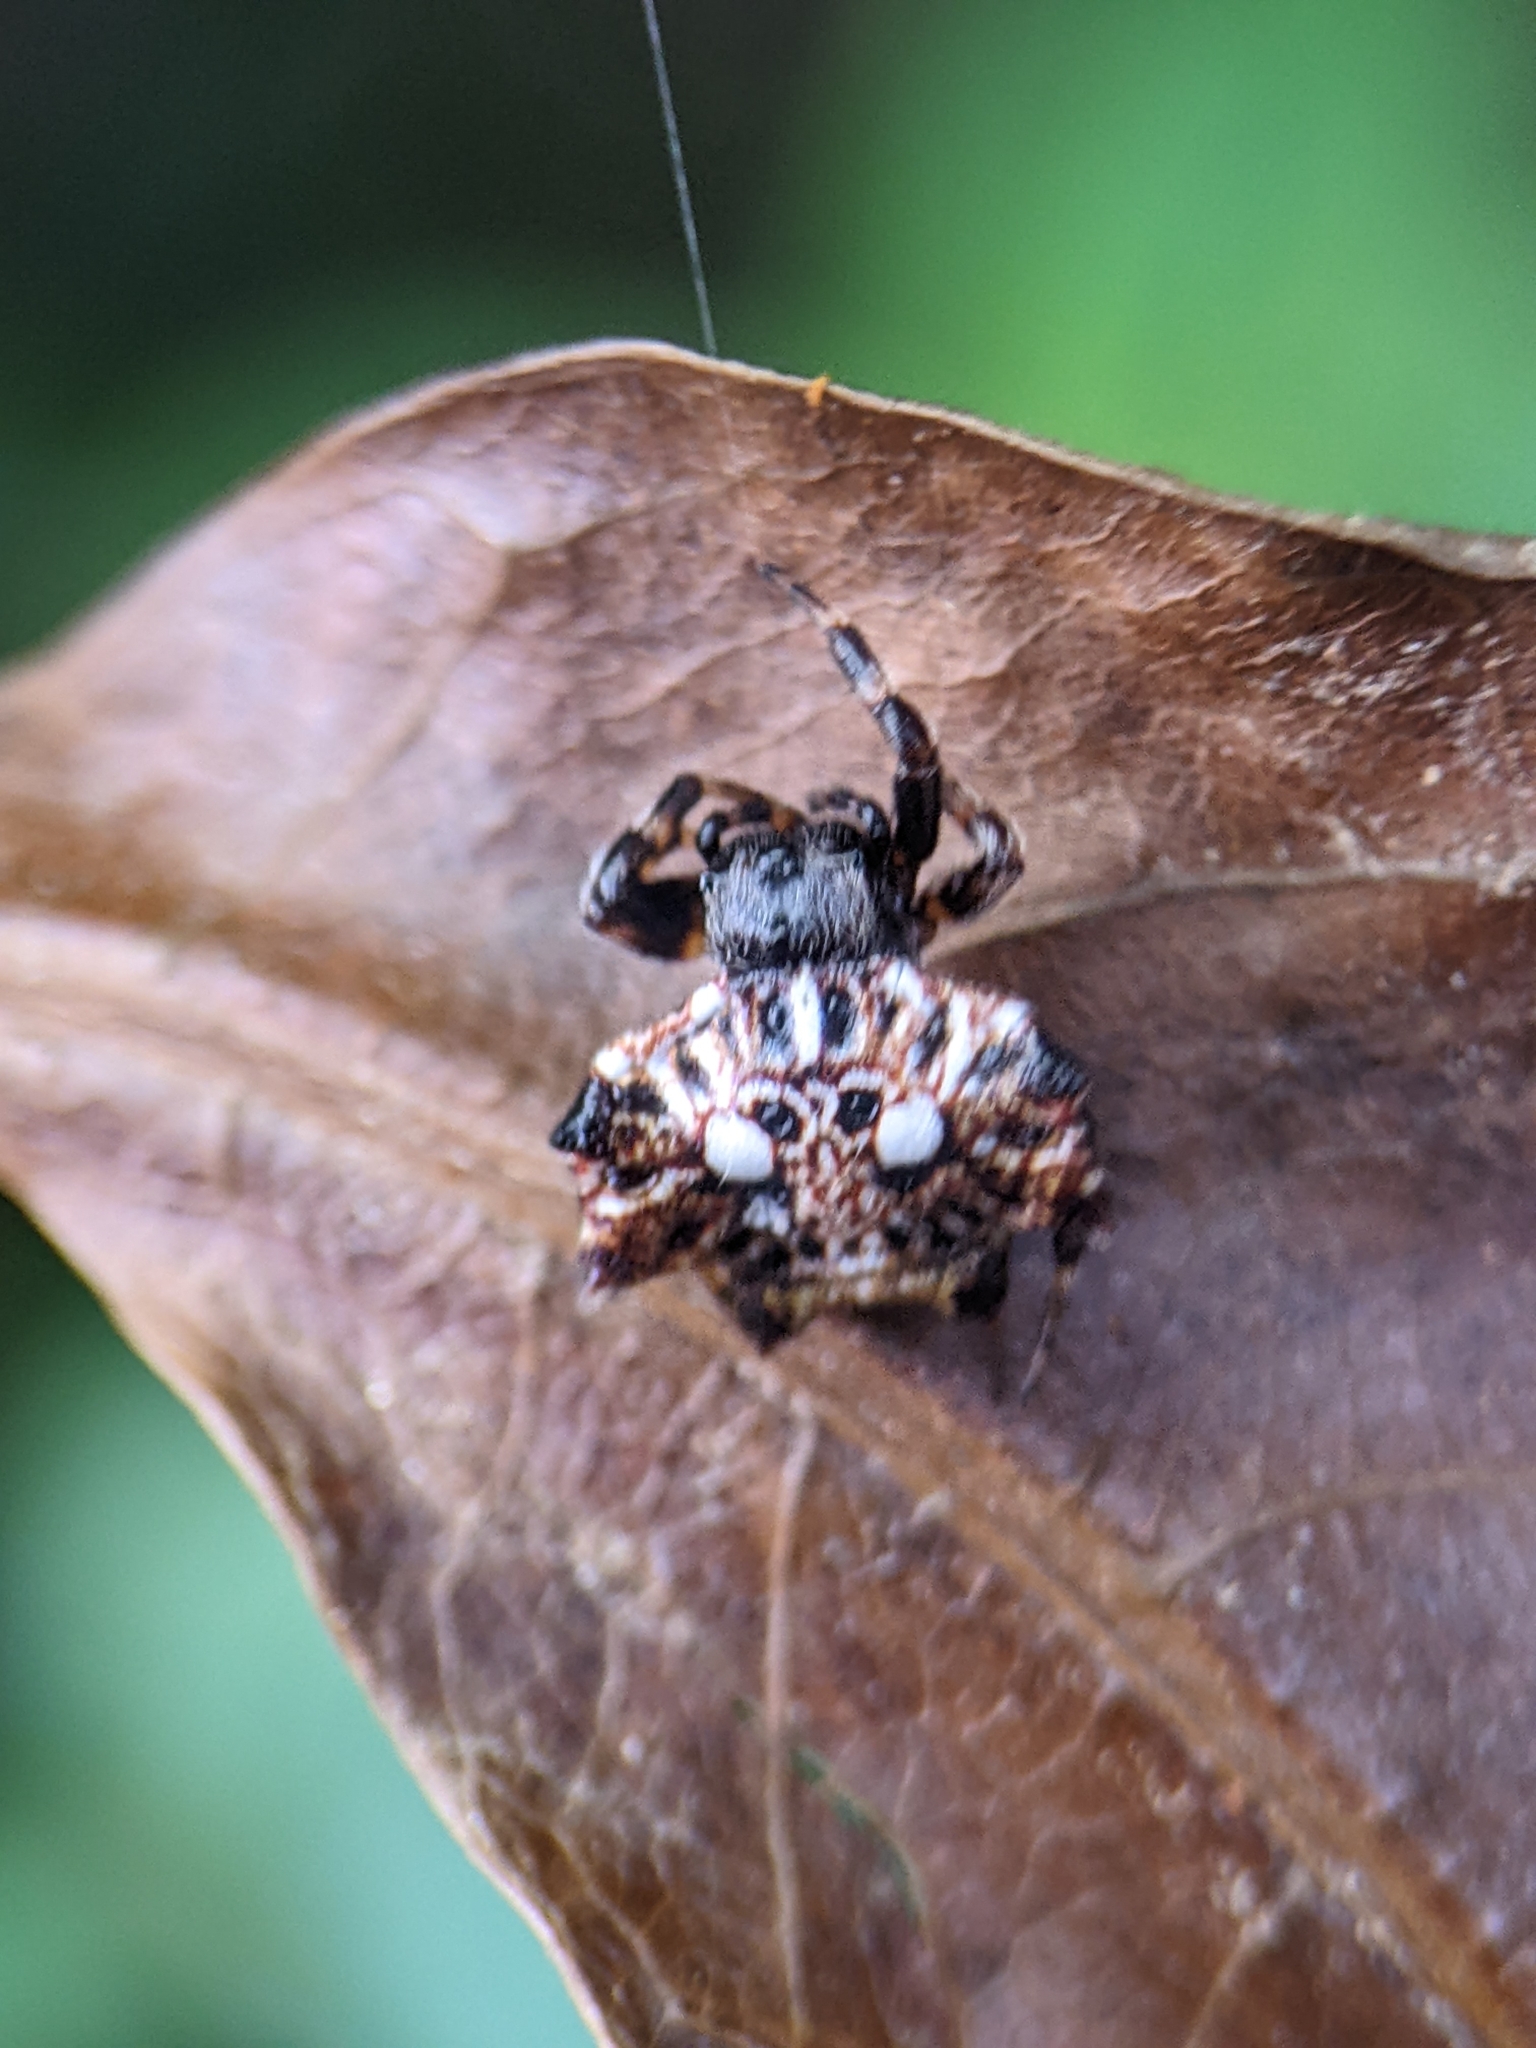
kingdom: Animalia
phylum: Arthropoda
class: Arachnida
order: Araneae
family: Araneidae
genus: Thelacantha
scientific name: Thelacantha brevispina
